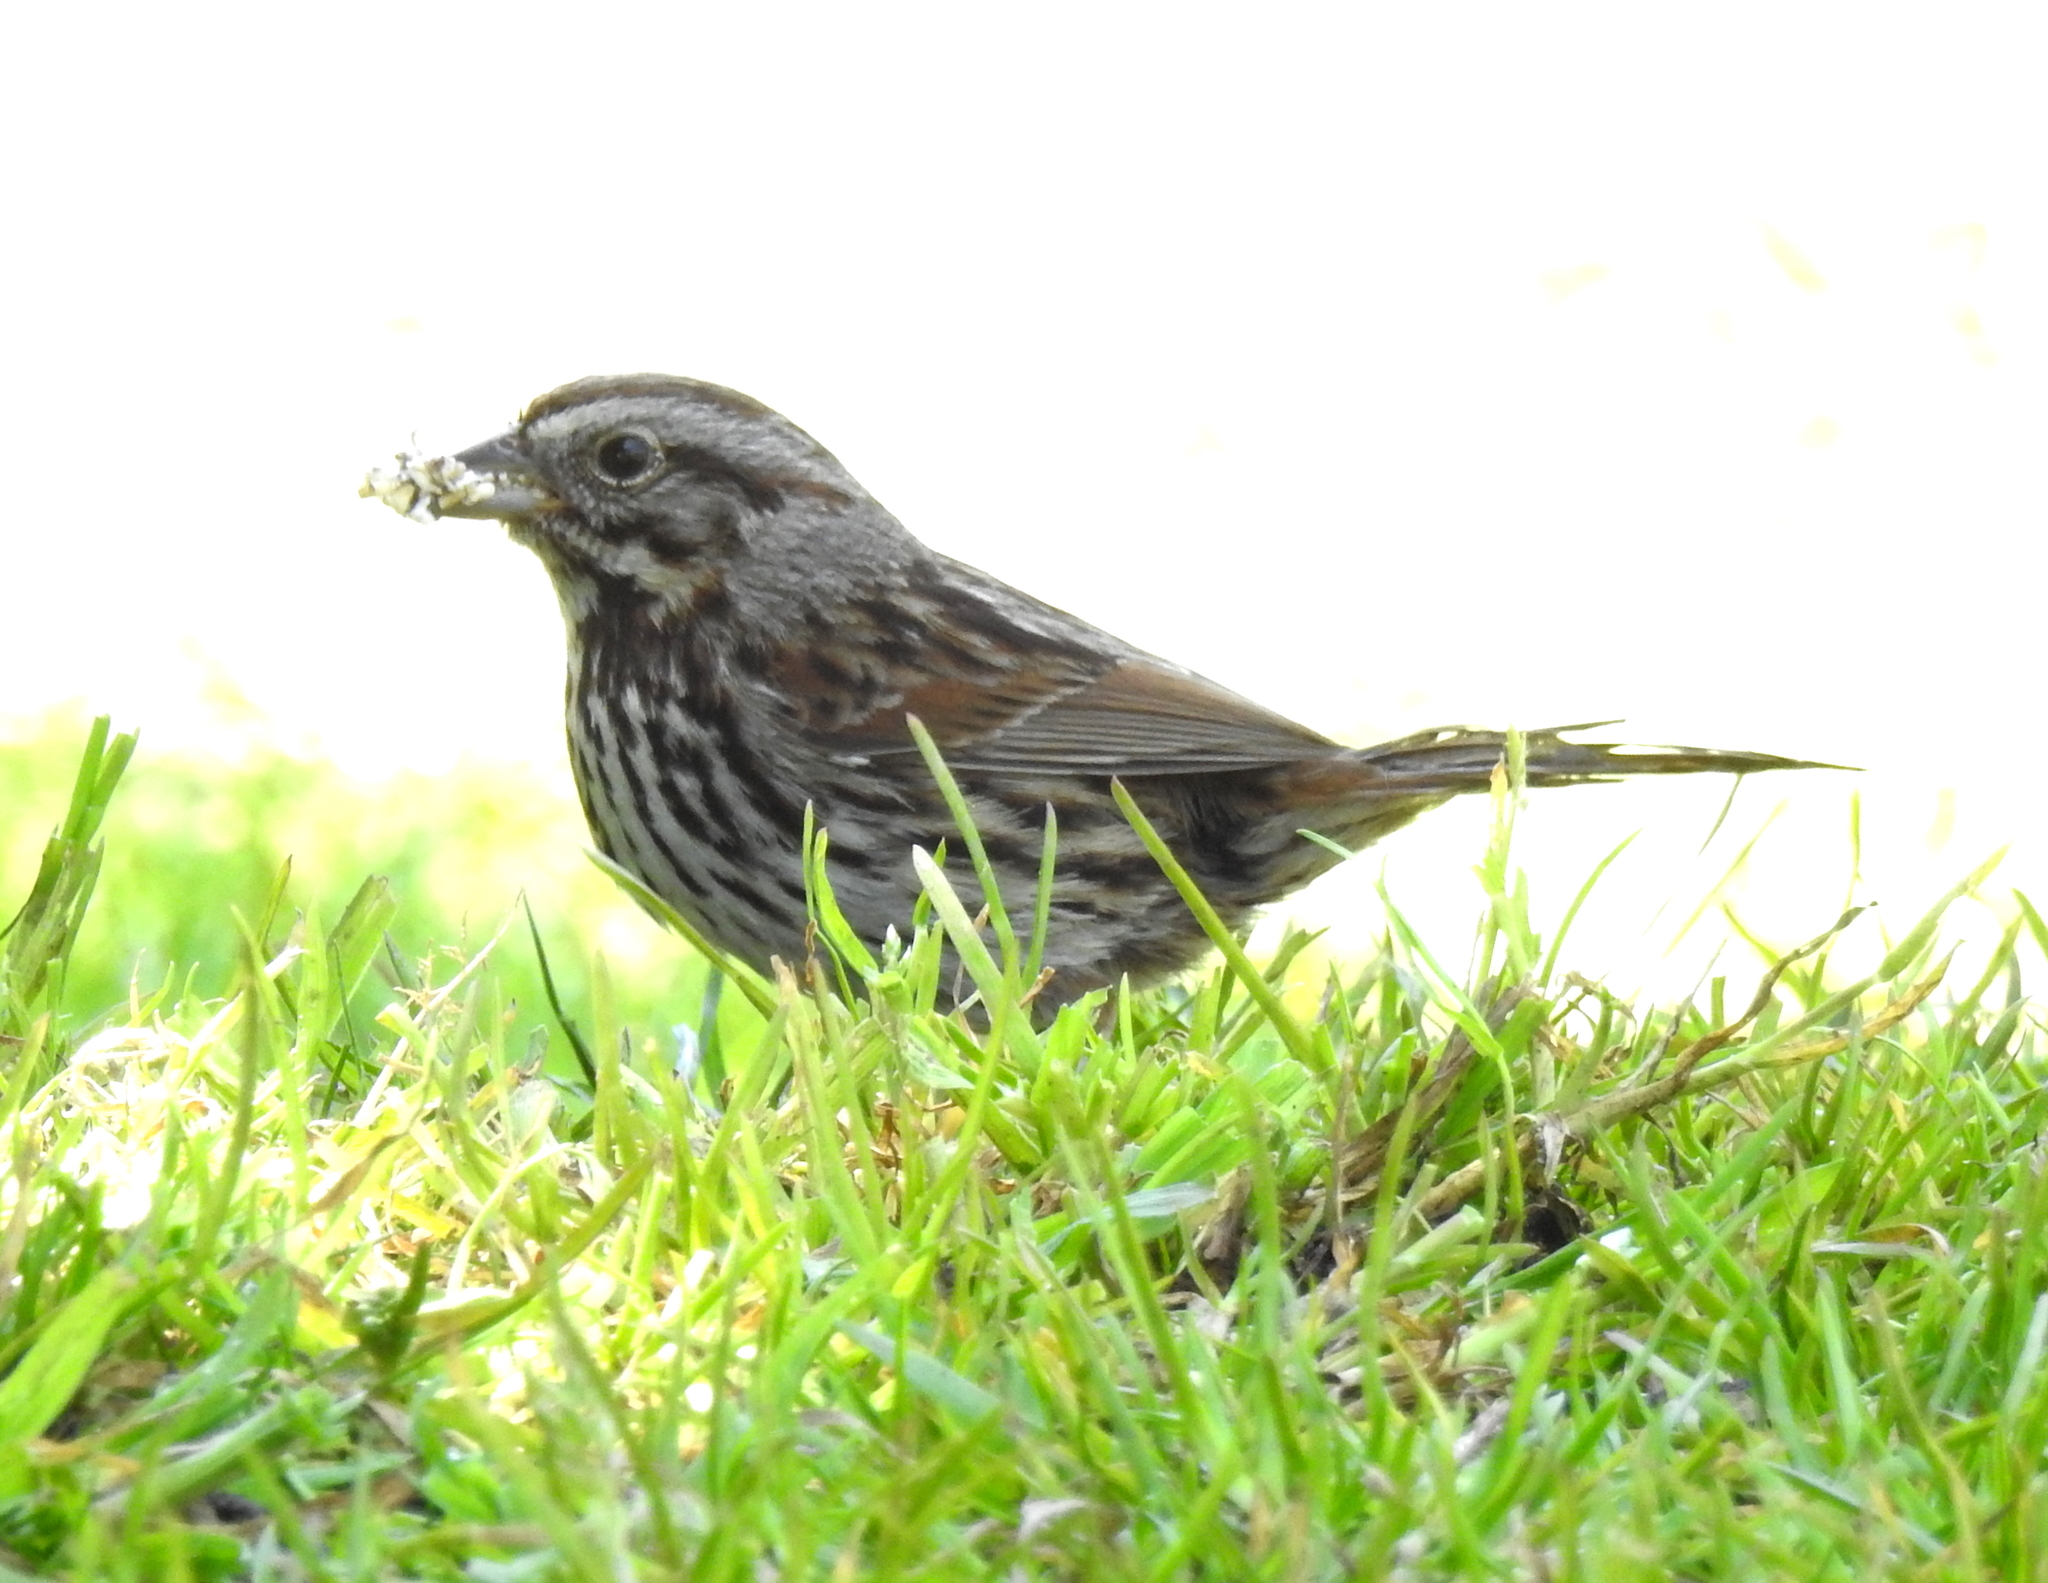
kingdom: Animalia
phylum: Chordata
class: Aves
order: Passeriformes
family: Passerellidae
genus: Melospiza
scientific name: Melospiza melodia
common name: Song sparrow
